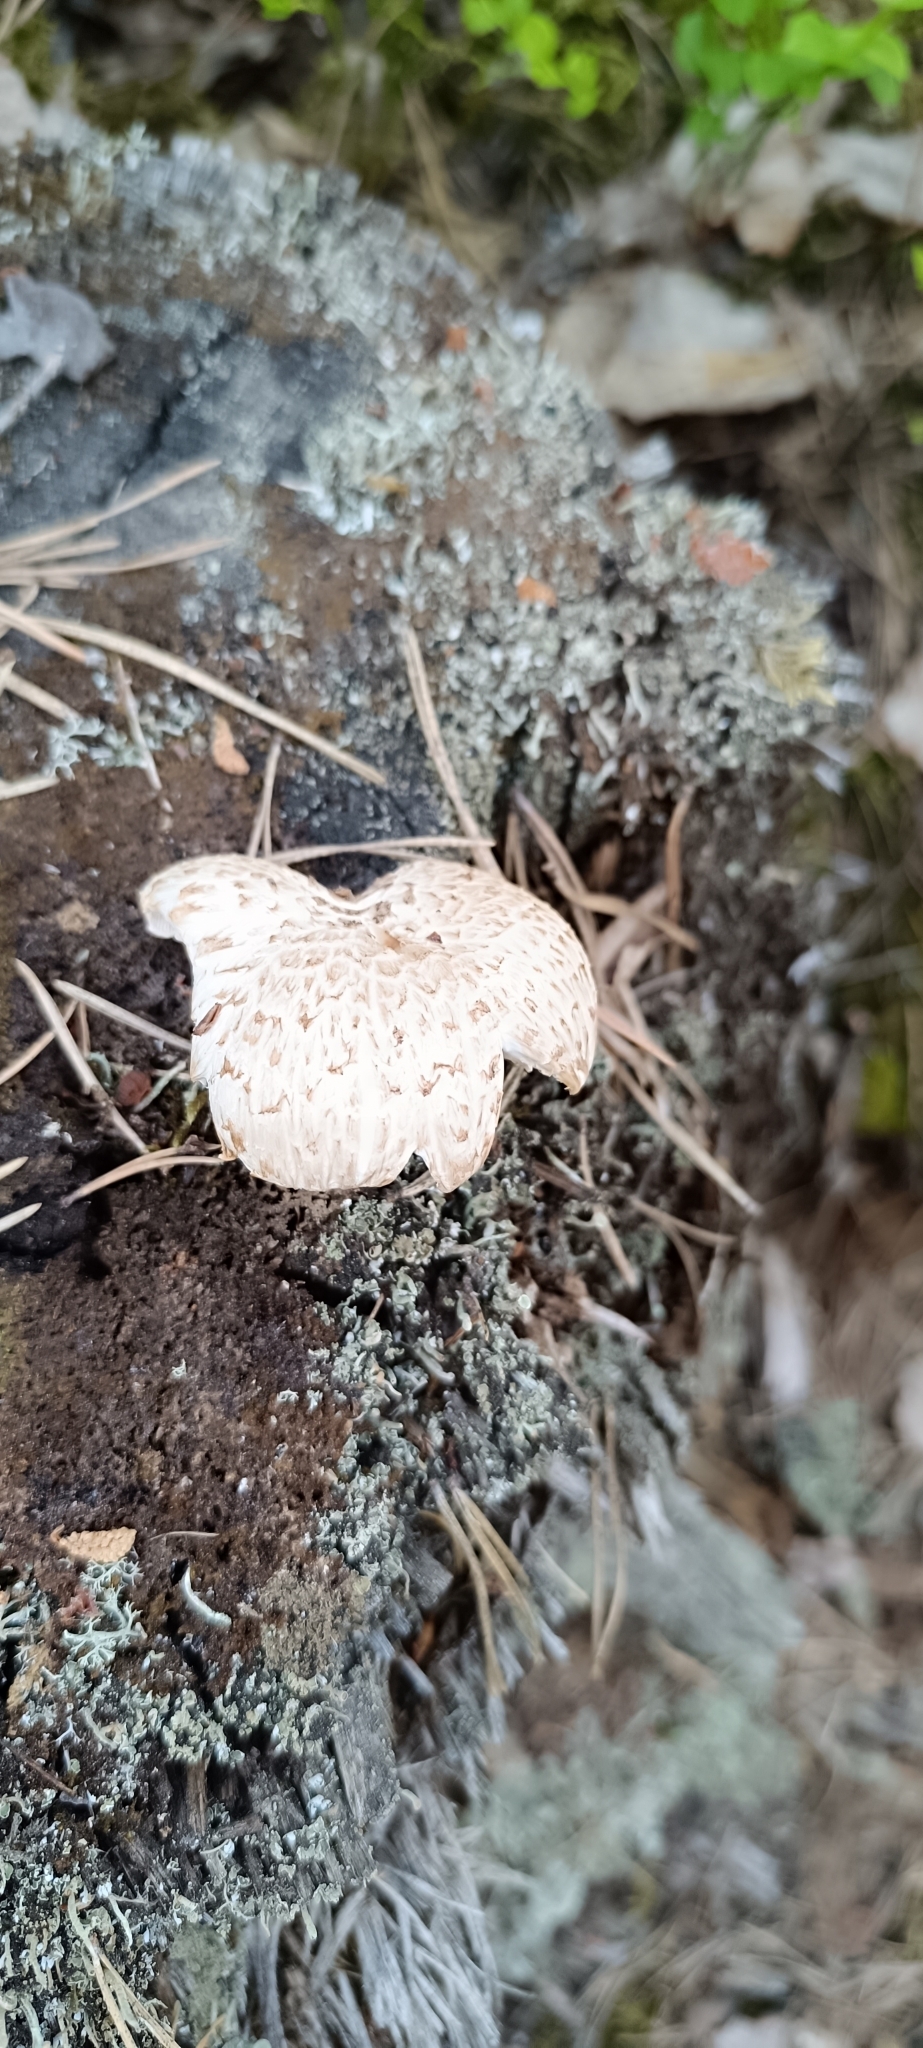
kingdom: Fungi
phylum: Basidiomycota
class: Agaricomycetes
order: Gloeophyllales
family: Gloeophyllaceae
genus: Neolentinus
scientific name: Neolentinus lepideus
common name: Scaly sawgill
